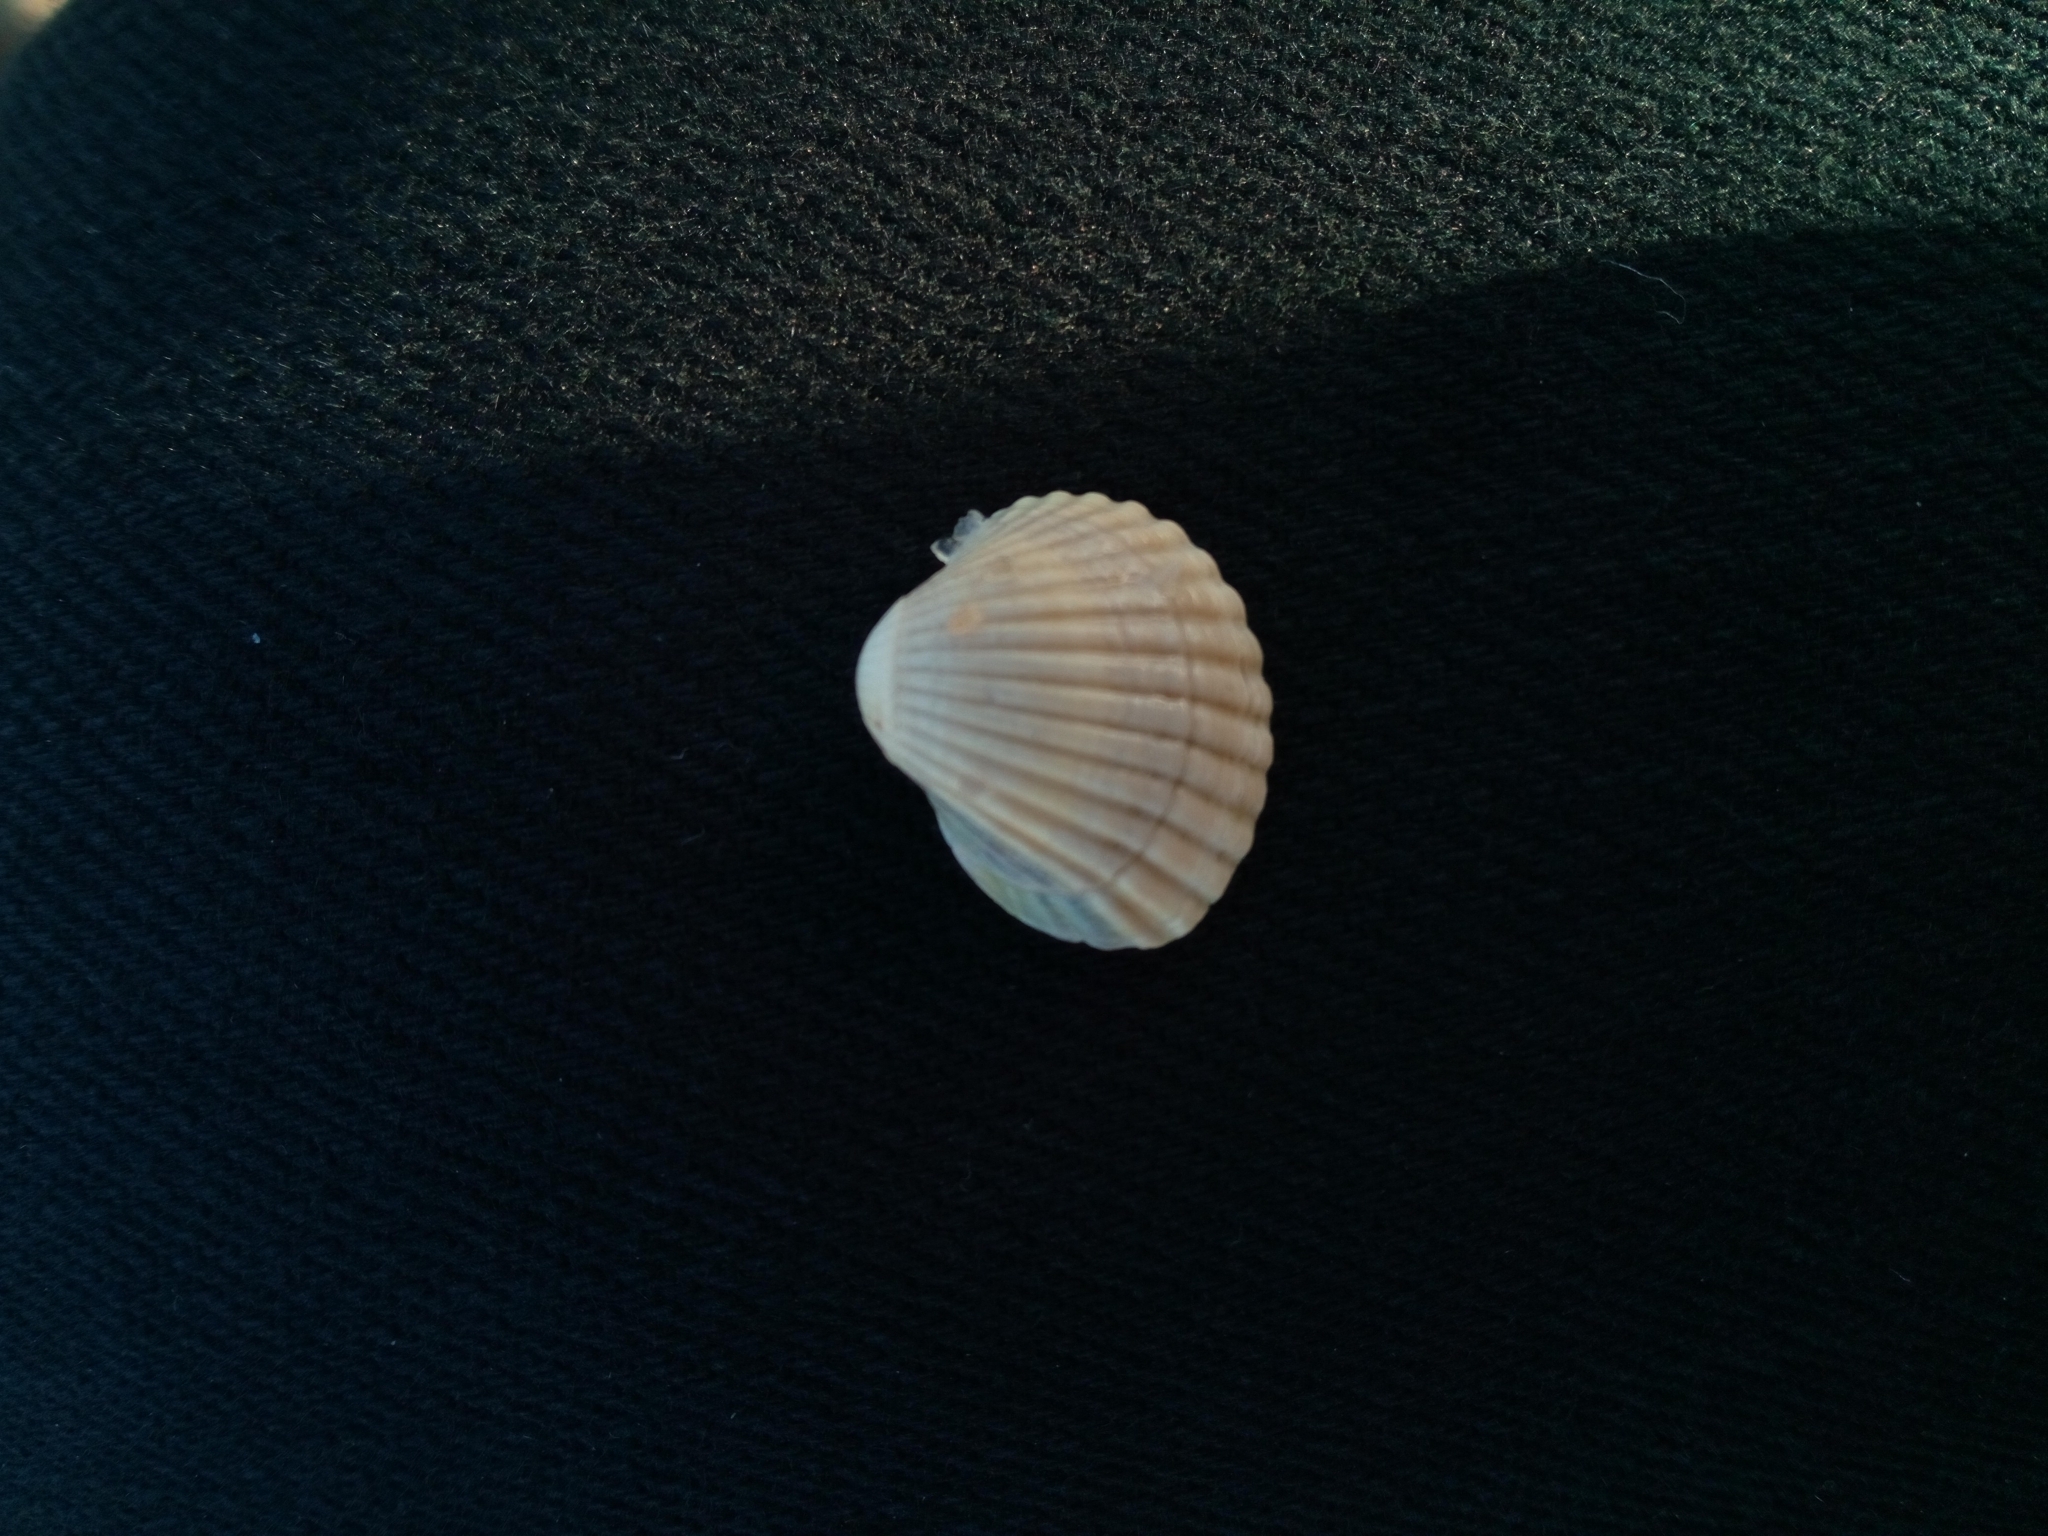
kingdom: Animalia
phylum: Mollusca
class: Bivalvia
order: Cardiida
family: Cardiidae
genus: Cerastoderma
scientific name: Cerastoderma glaucum
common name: Lagoon cockle
